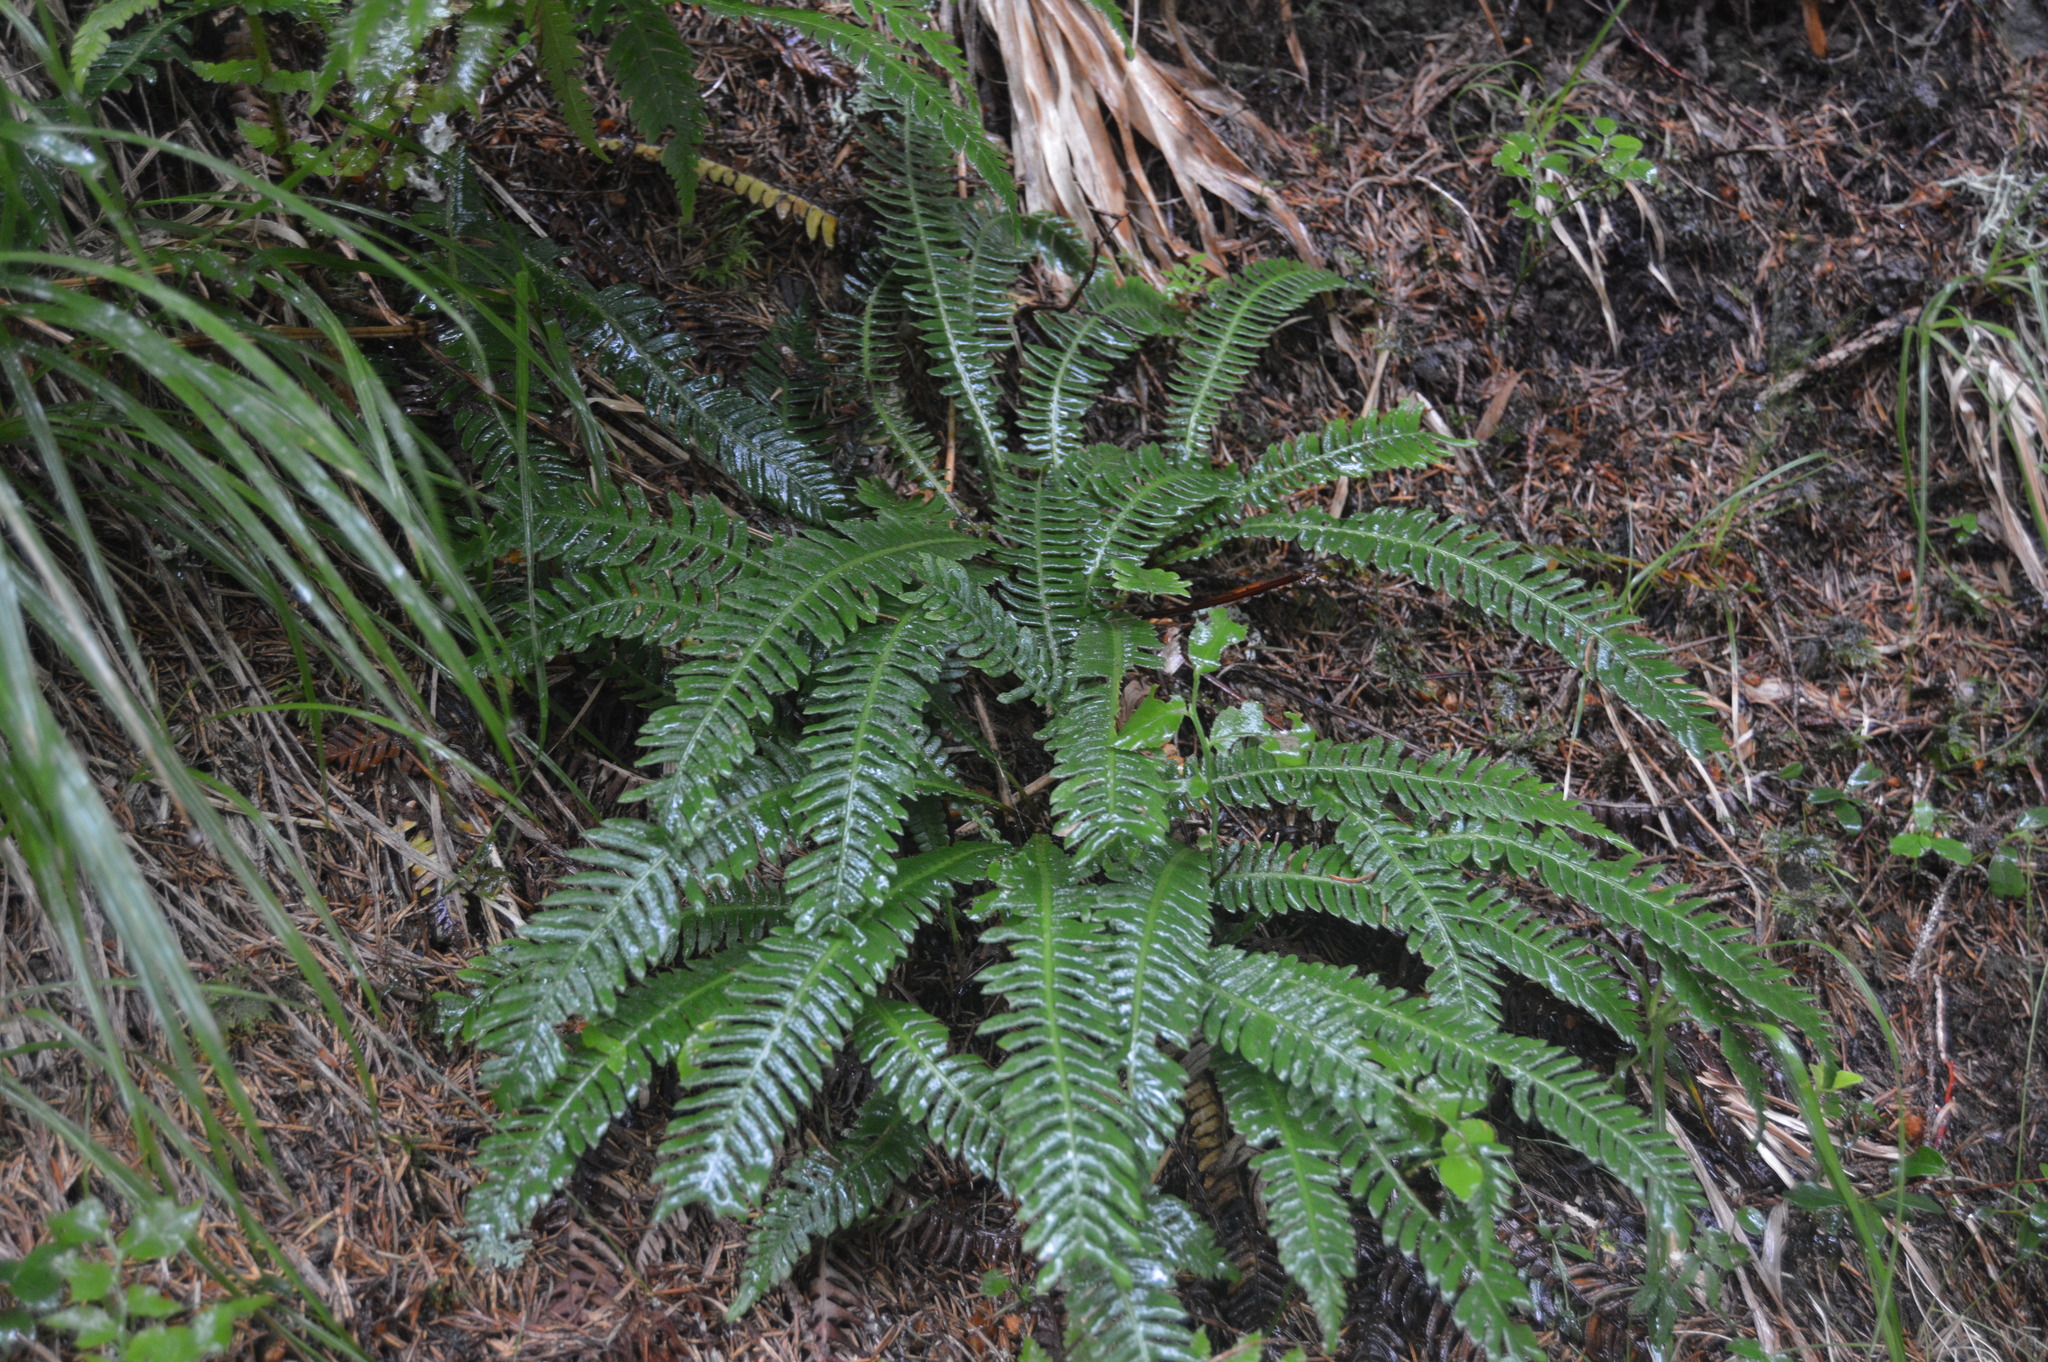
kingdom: Plantae
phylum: Tracheophyta
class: Polypodiopsida
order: Polypodiales
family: Blechnaceae
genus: Struthiopteris
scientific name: Struthiopteris spicant
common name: Deer fern
